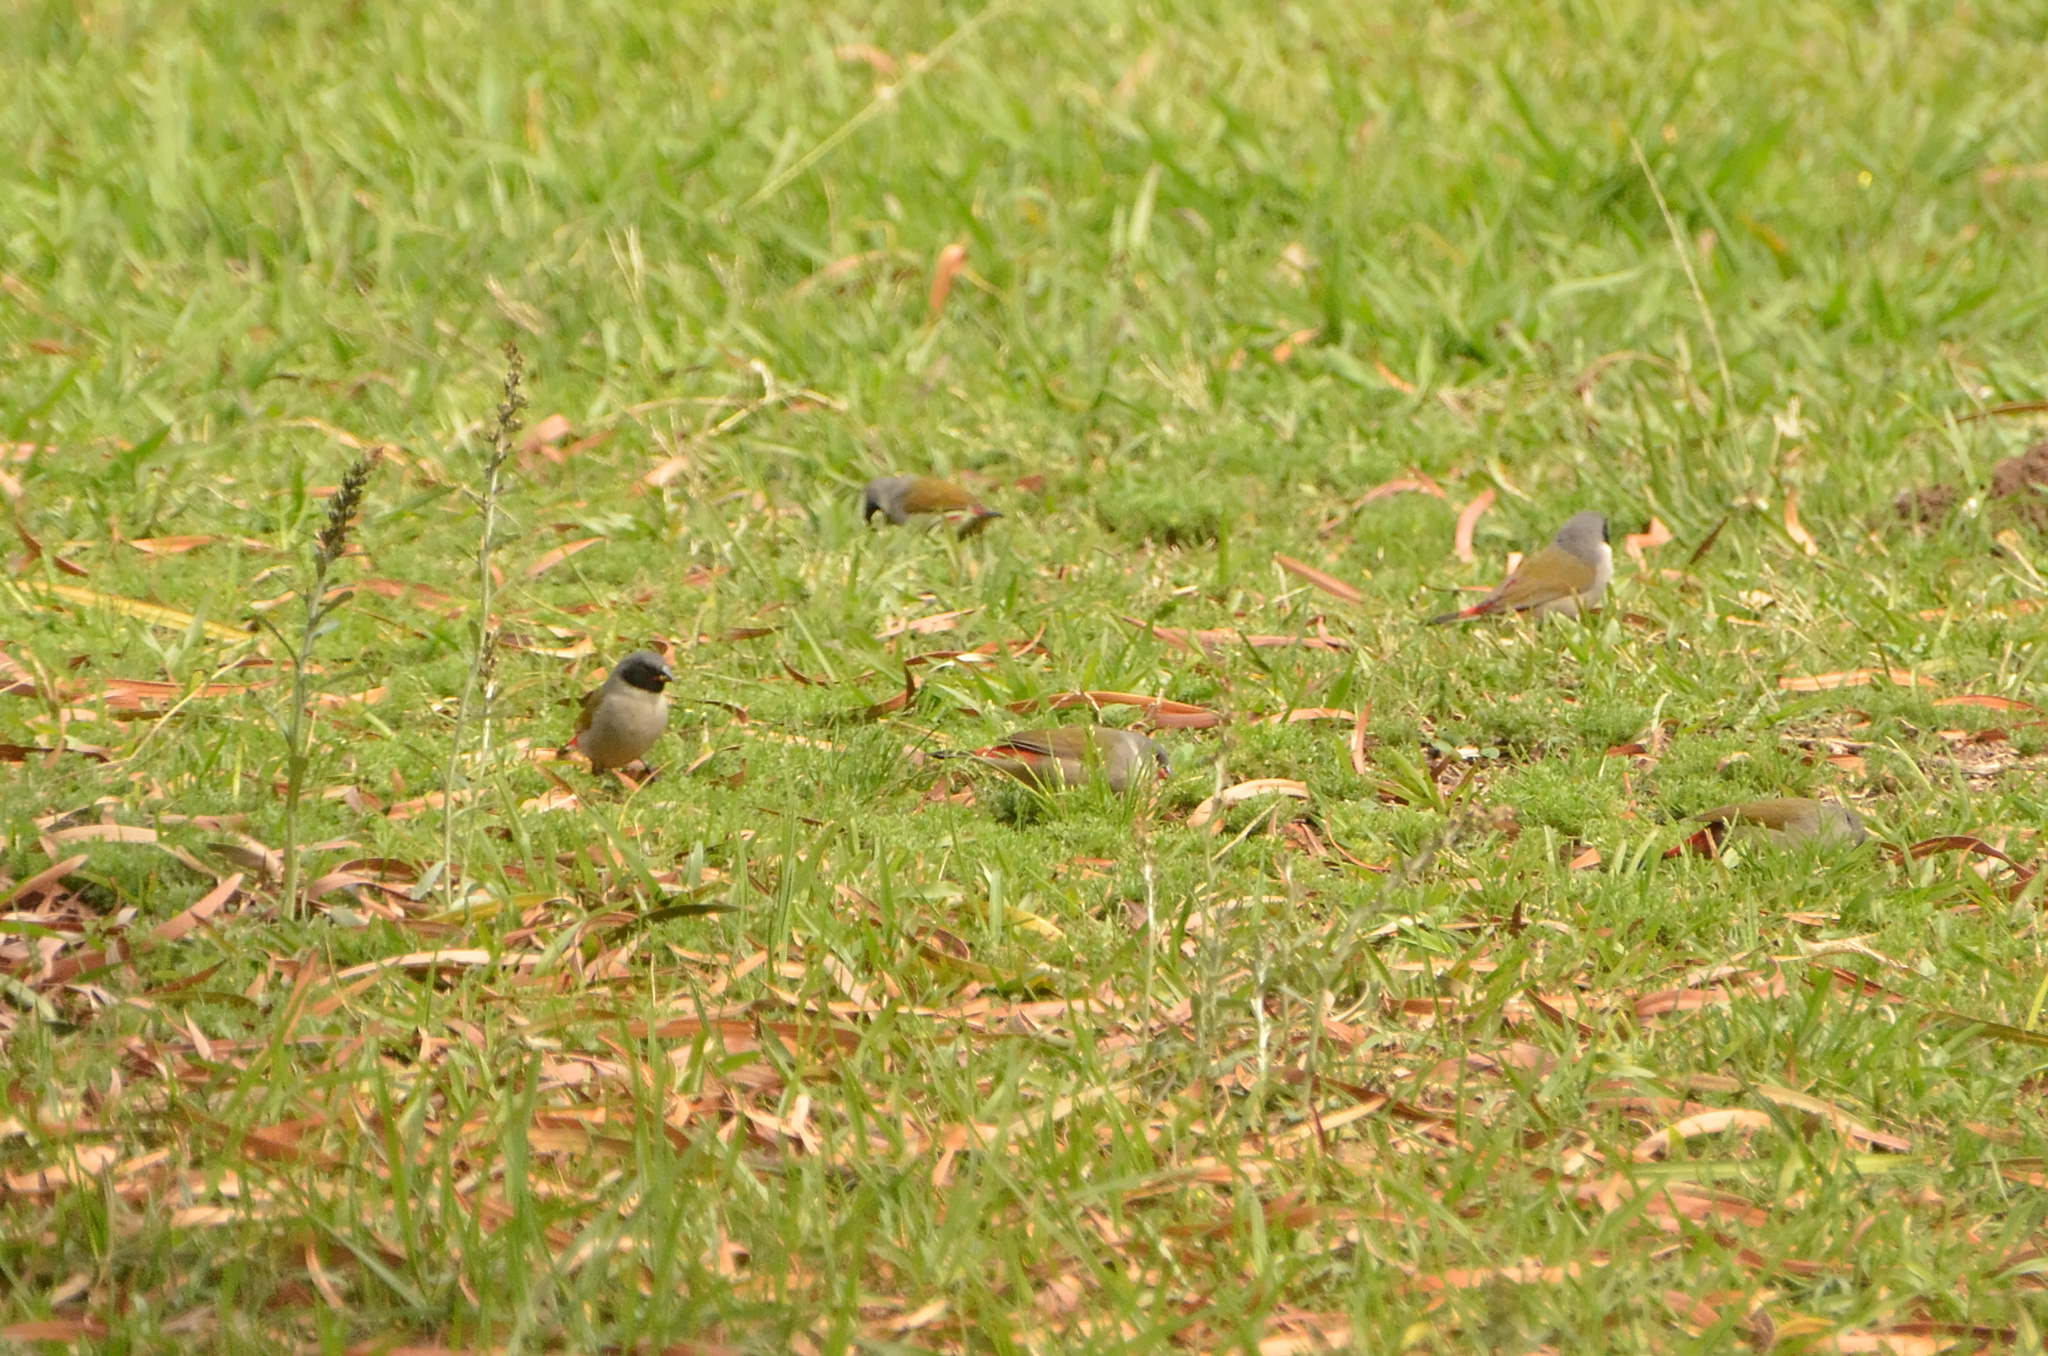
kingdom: Animalia
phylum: Chordata
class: Aves
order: Passeriformes
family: Estrildidae
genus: Coccopygia
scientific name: Coccopygia melanotis
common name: Swee waxbill
